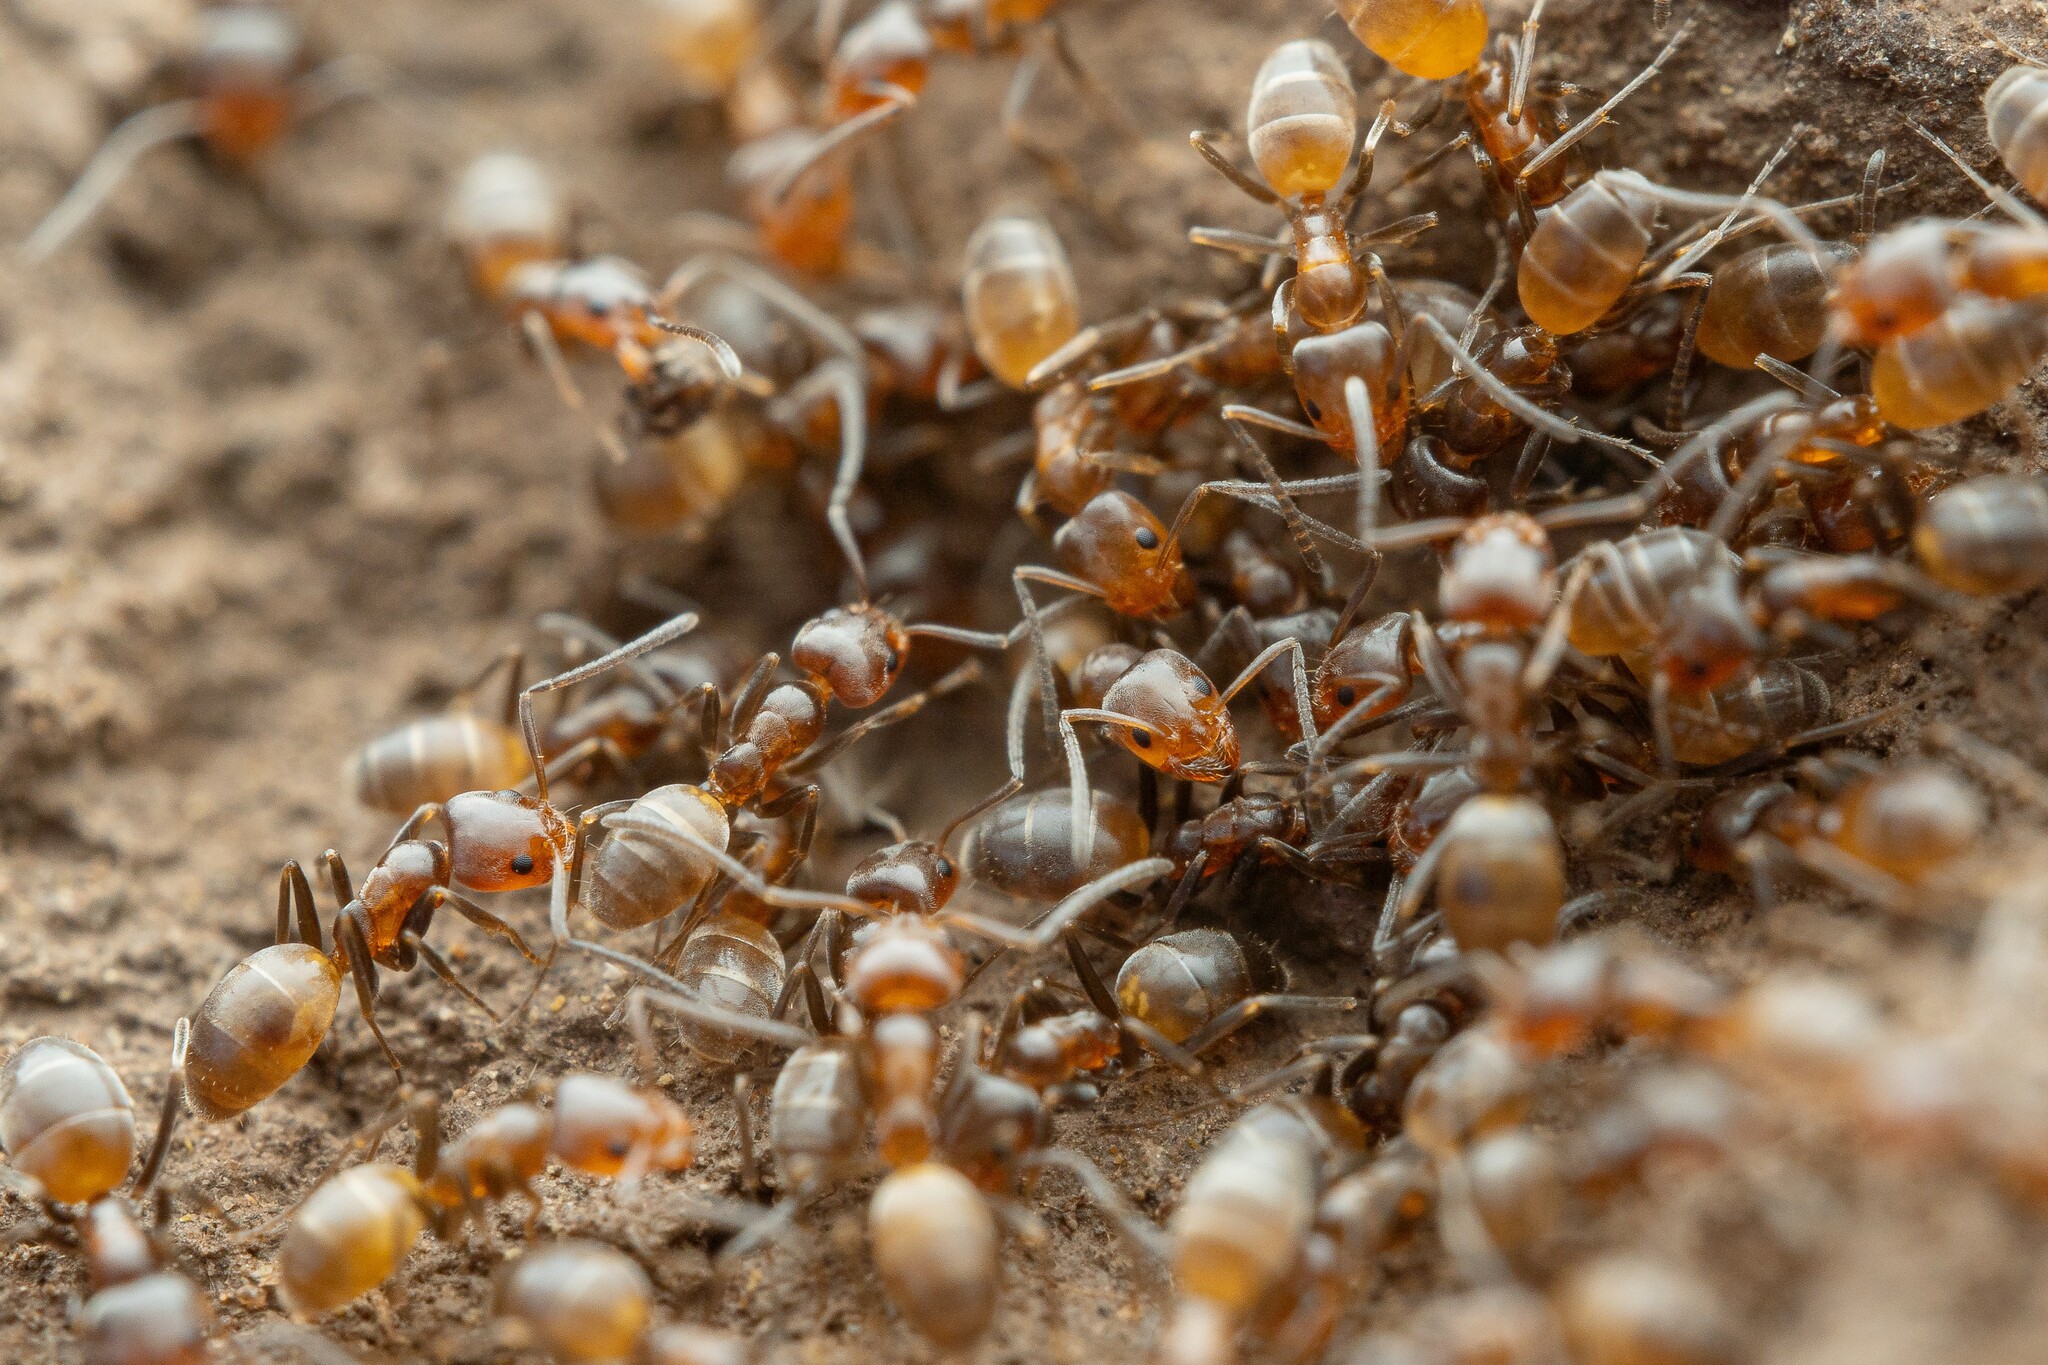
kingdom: Animalia
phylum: Arthropoda
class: Insecta
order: Hymenoptera
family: Formicidae
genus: Forelius
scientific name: Forelius pruinosus
